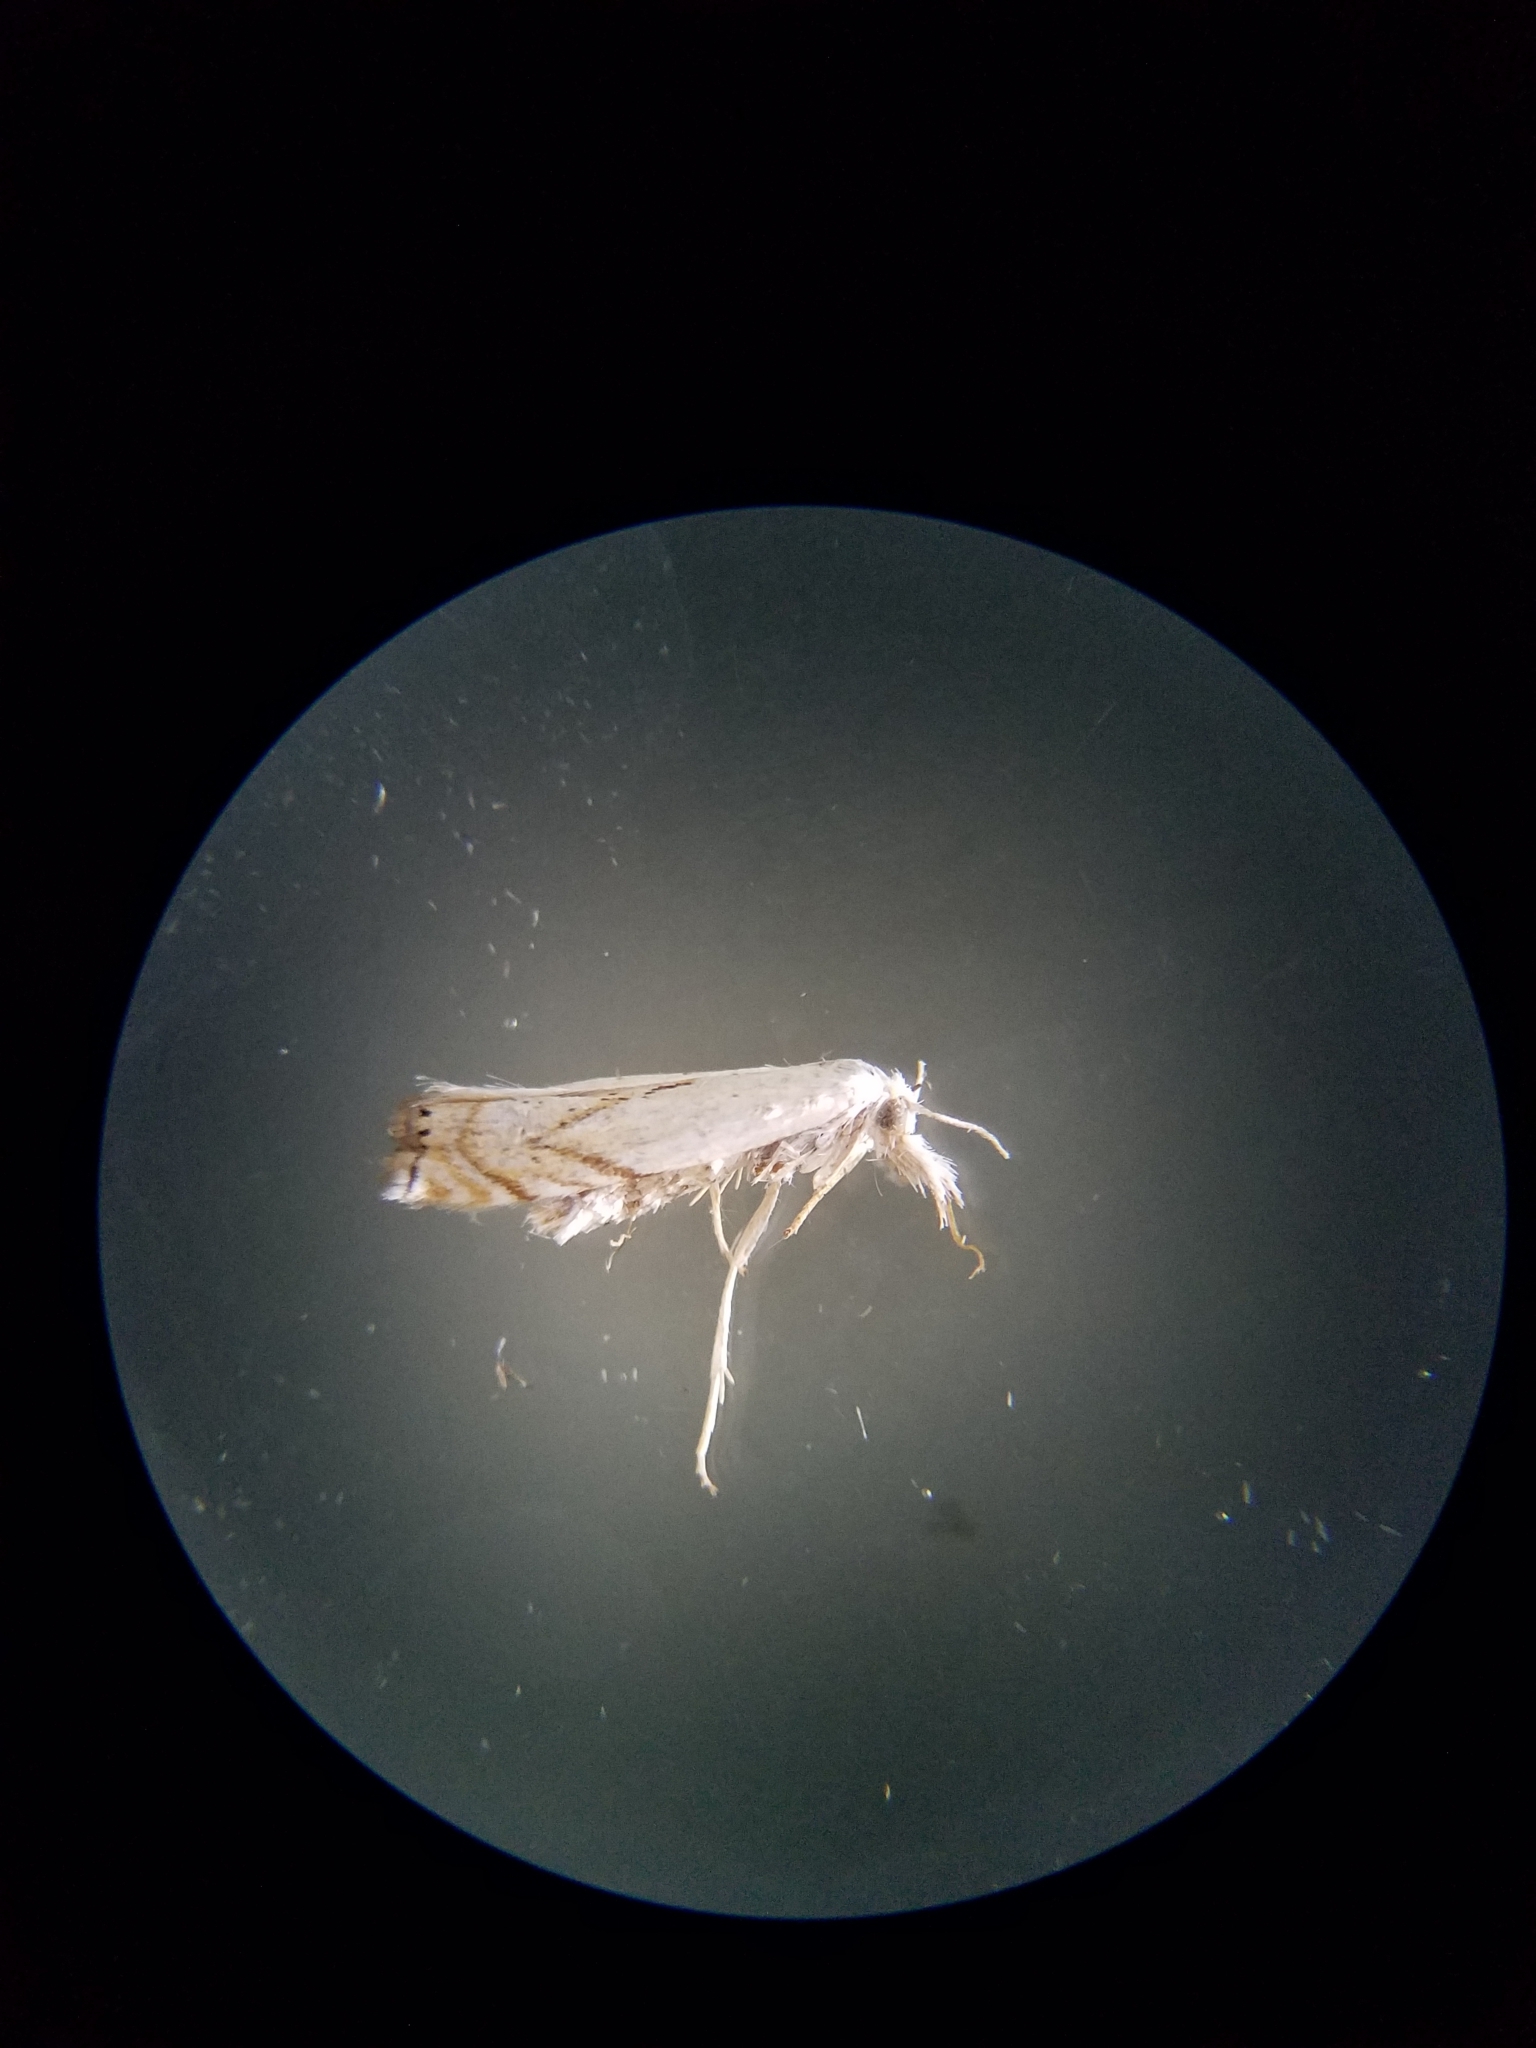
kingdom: Animalia
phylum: Arthropoda
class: Insecta
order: Lepidoptera
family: Crambidae
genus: Crambus
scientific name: Crambus albellus
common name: Small white grass-veneer
